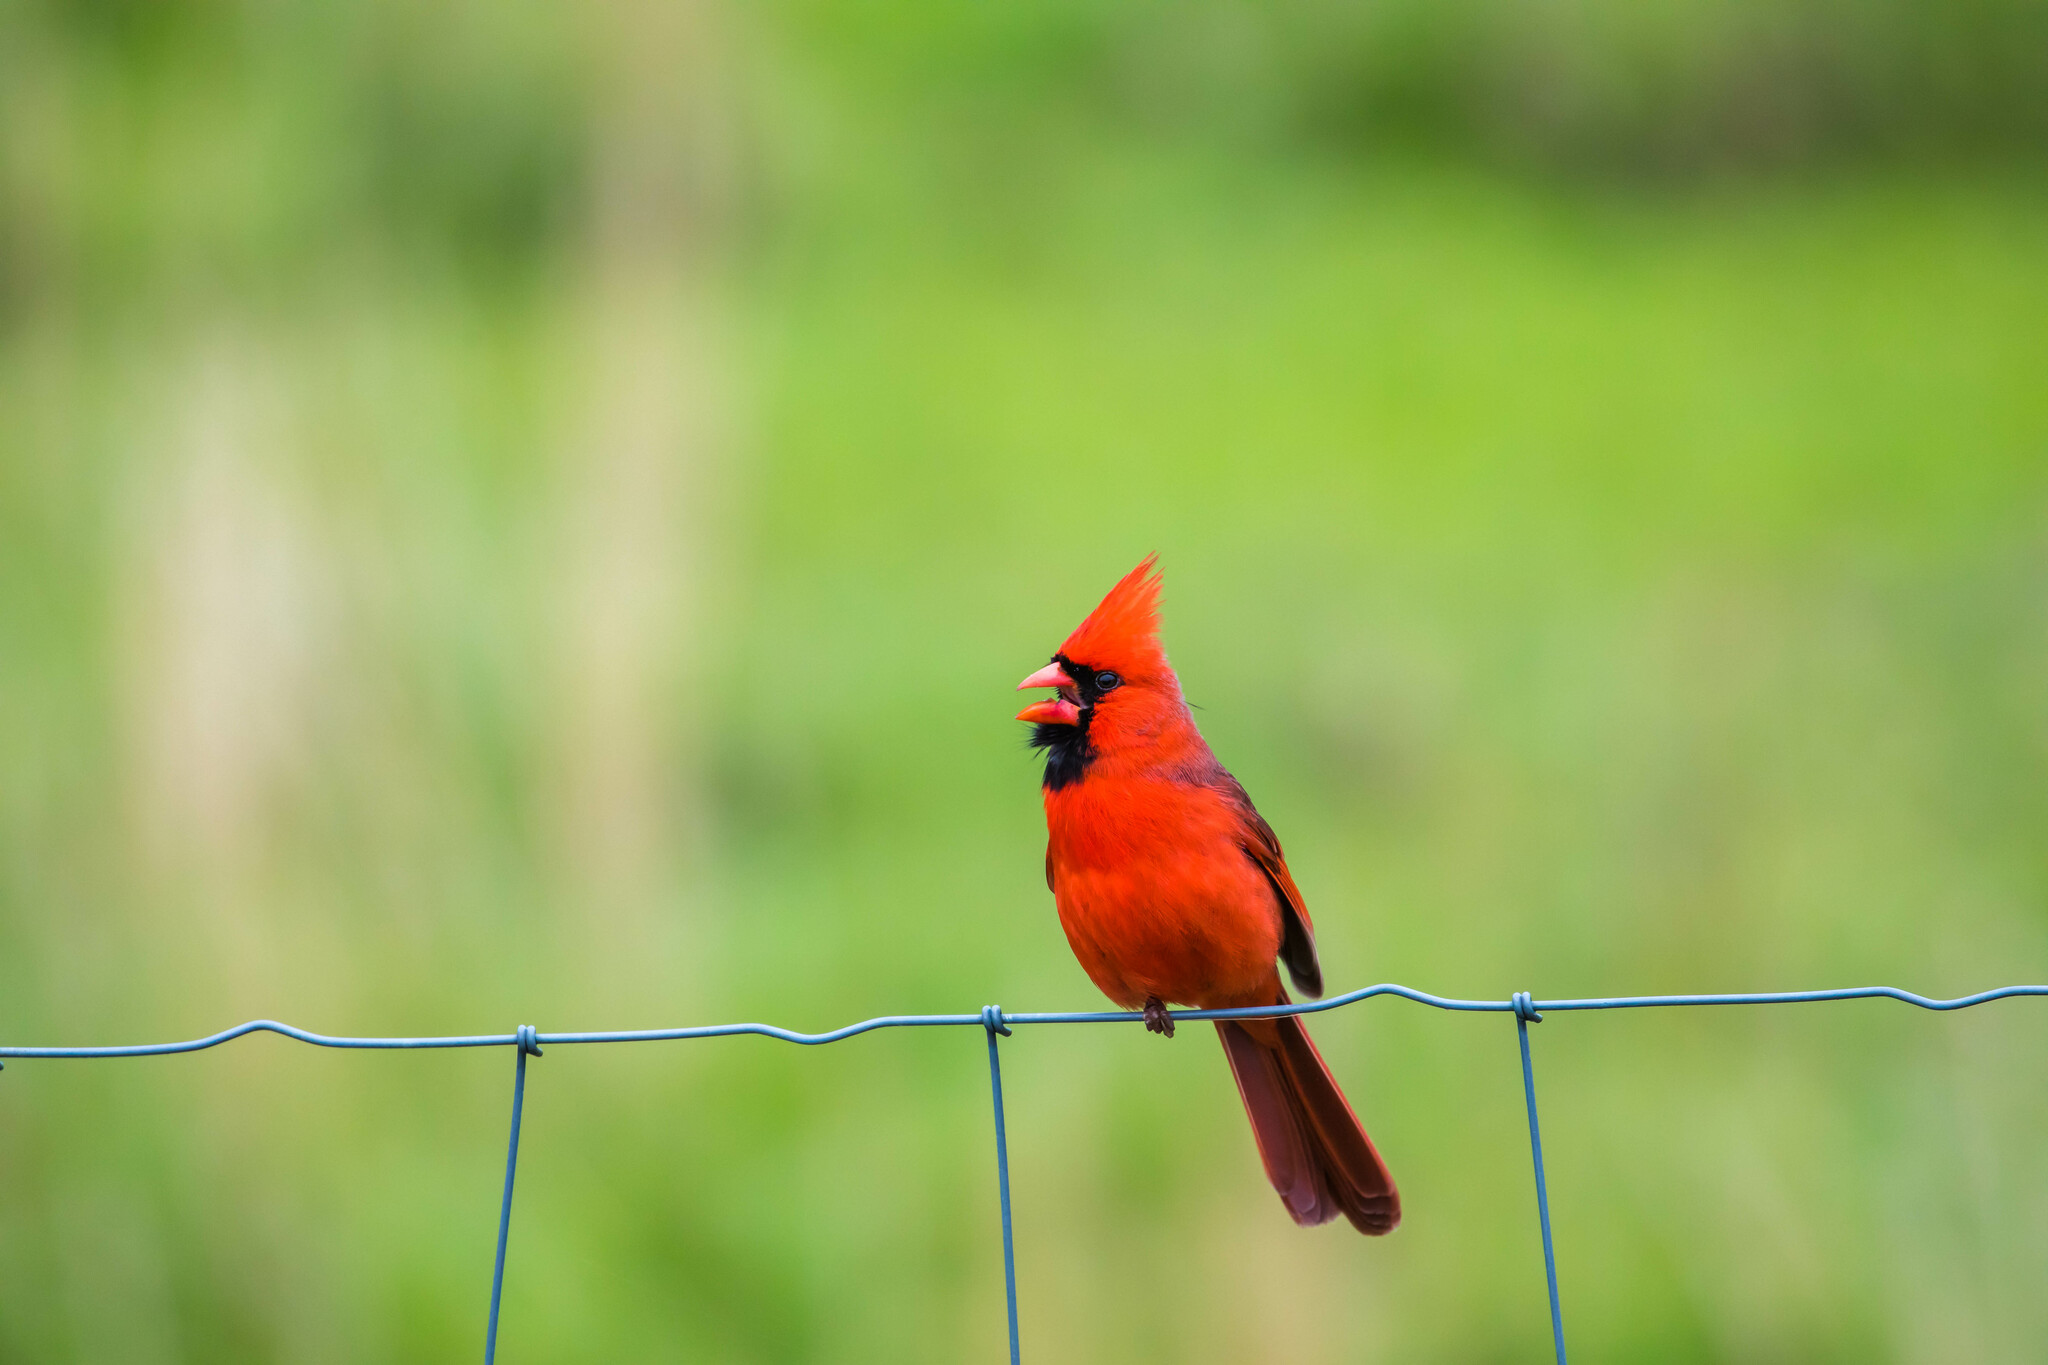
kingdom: Animalia
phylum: Chordata
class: Aves
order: Passeriformes
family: Cardinalidae
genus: Cardinalis
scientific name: Cardinalis cardinalis
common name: Northern cardinal
